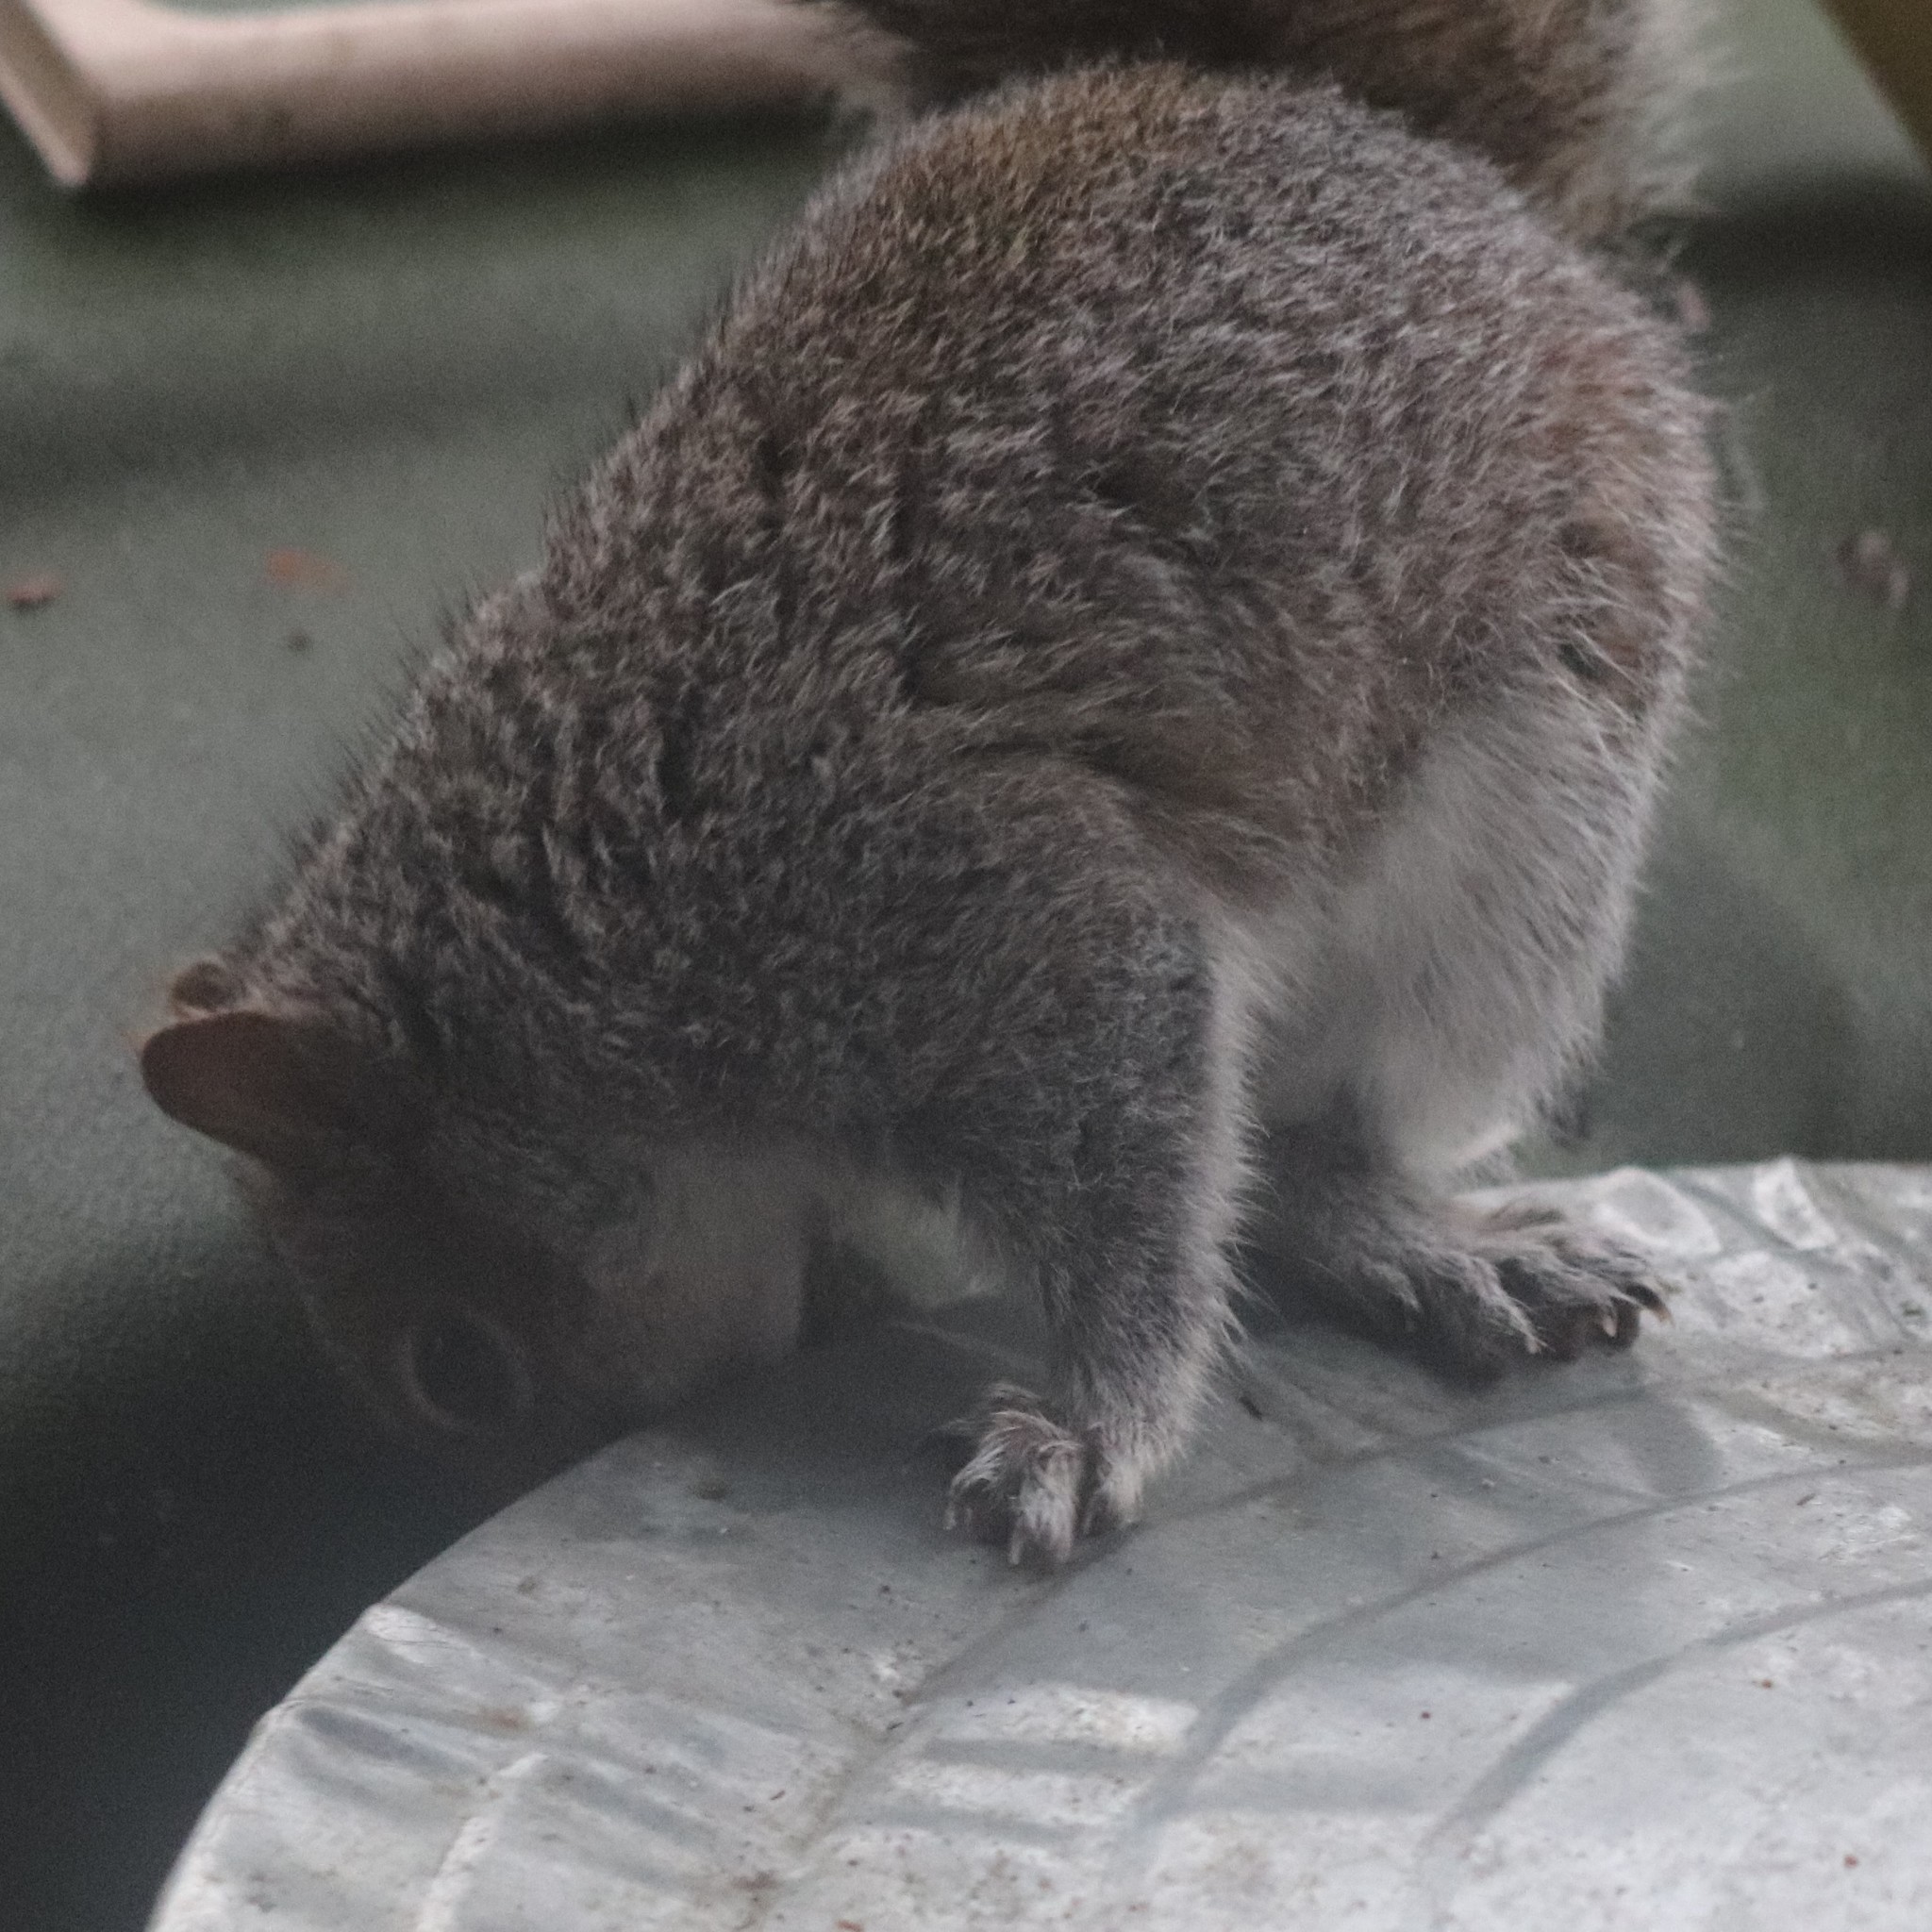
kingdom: Animalia
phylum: Chordata
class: Mammalia
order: Rodentia
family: Sciuridae
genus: Sciurus
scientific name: Sciurus carolinensis
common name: Eastern gray squirrel
